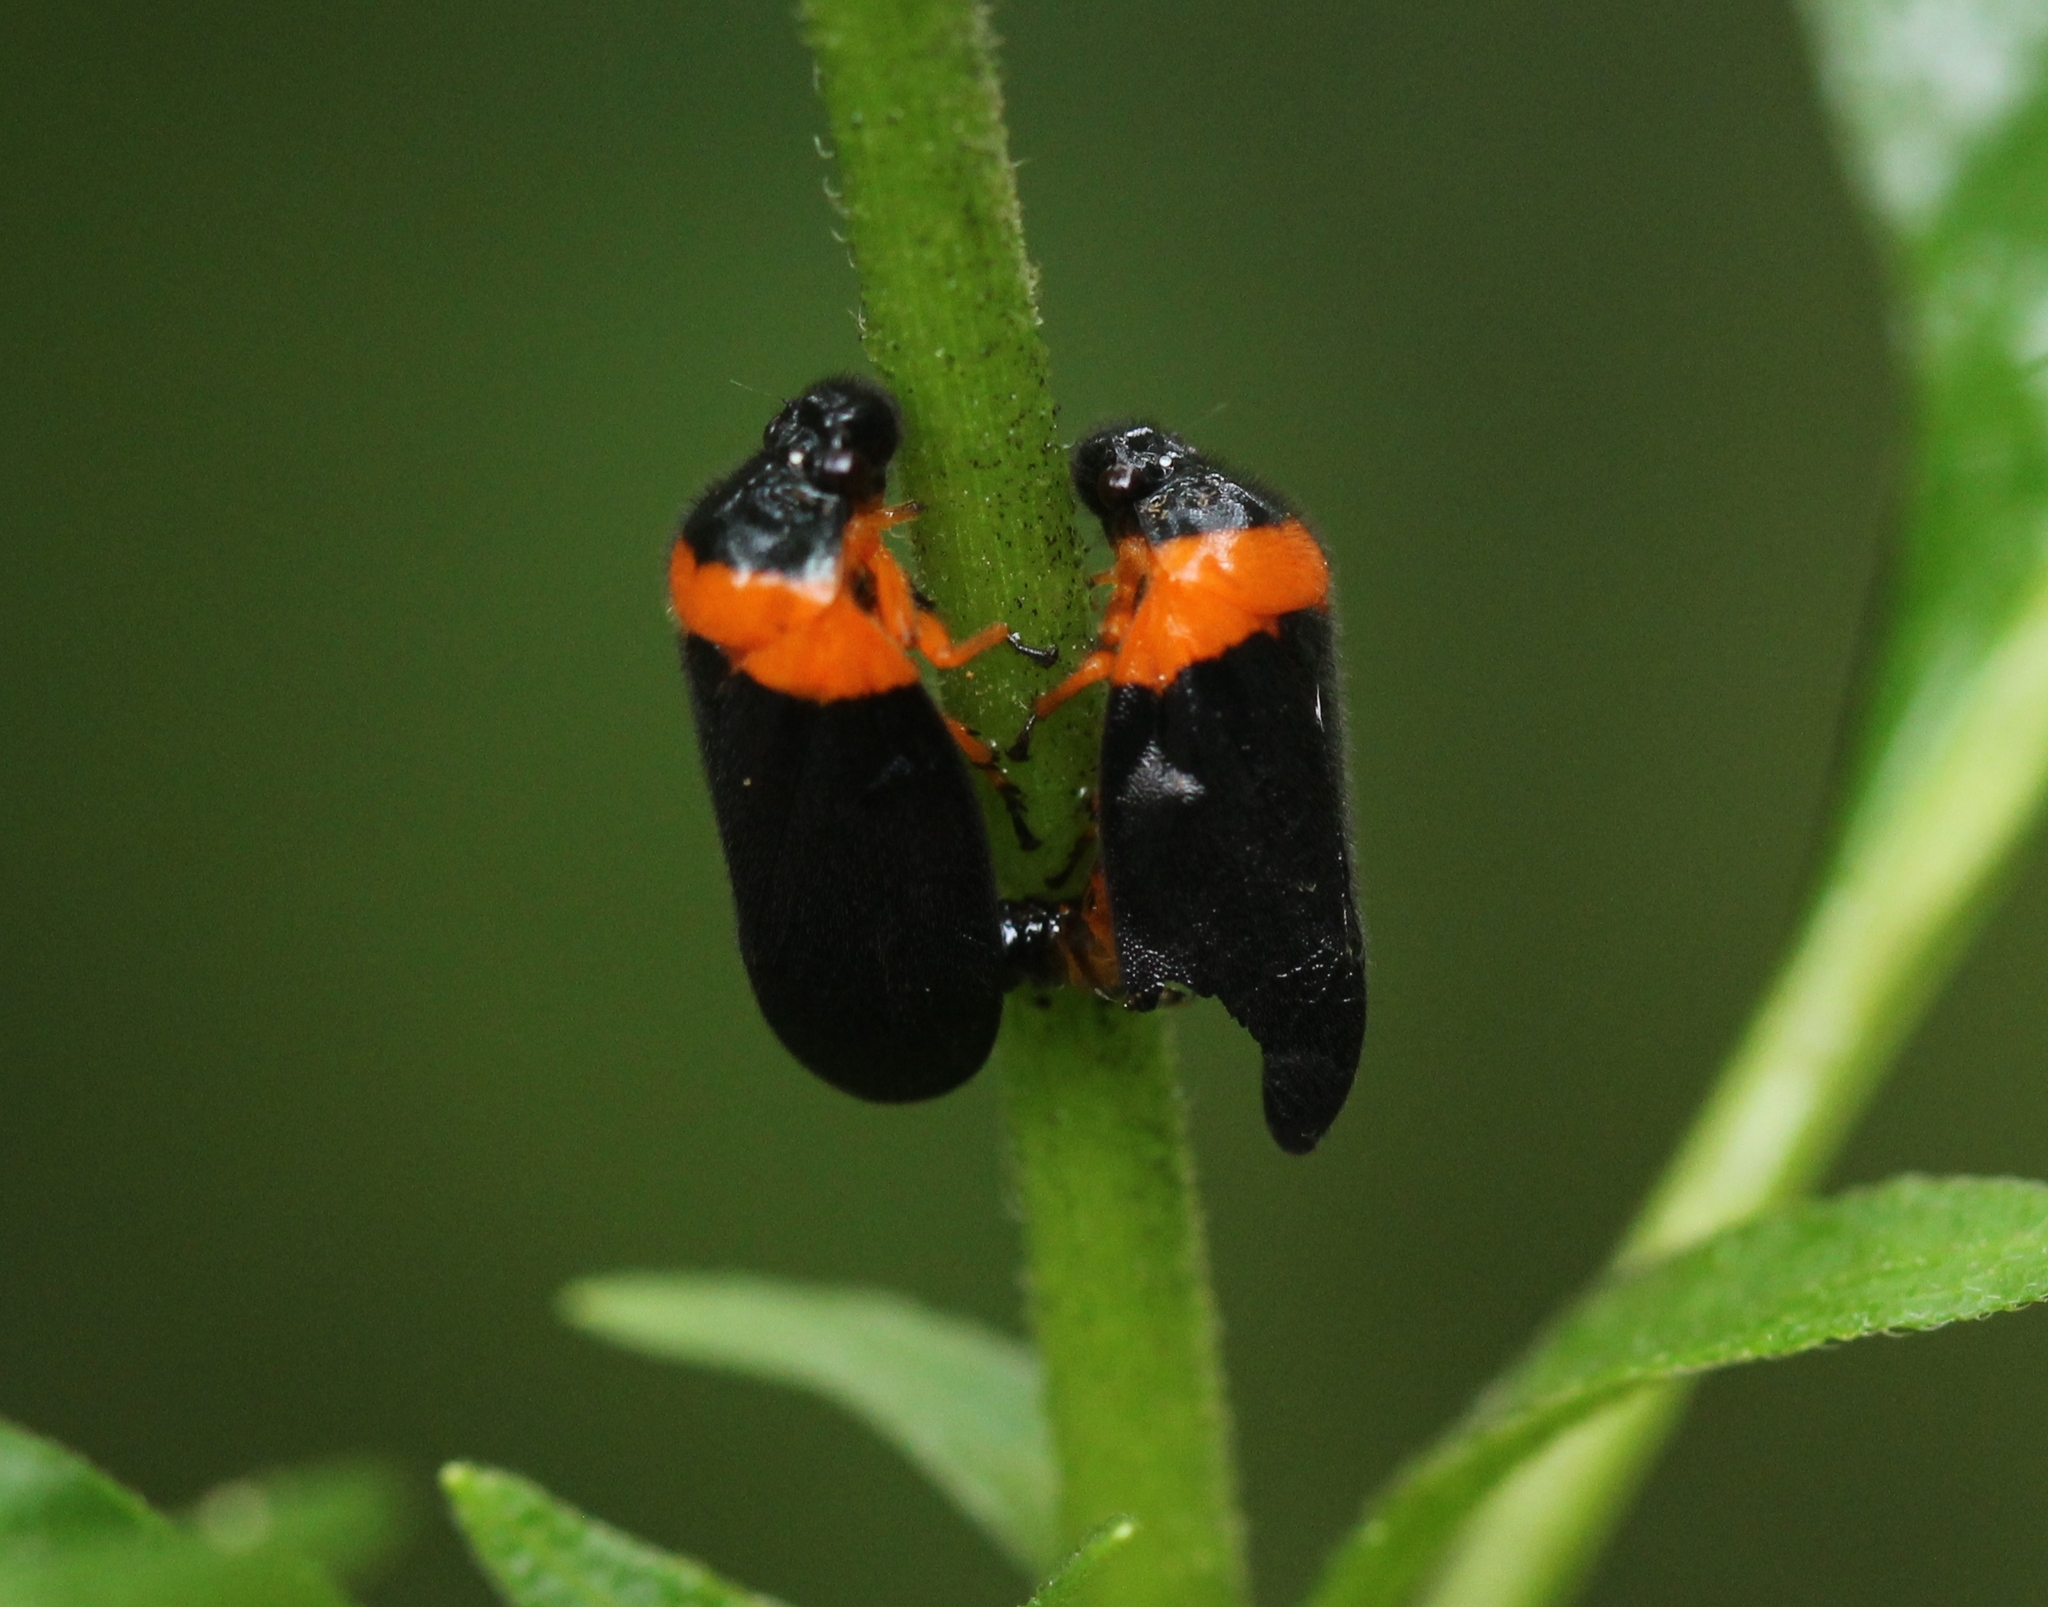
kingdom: Animalia
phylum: Arthropoda
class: Insecta
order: Hemiptera
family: Cercopidae
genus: Phymatostetha
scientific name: Phymatostetha deschampsi
